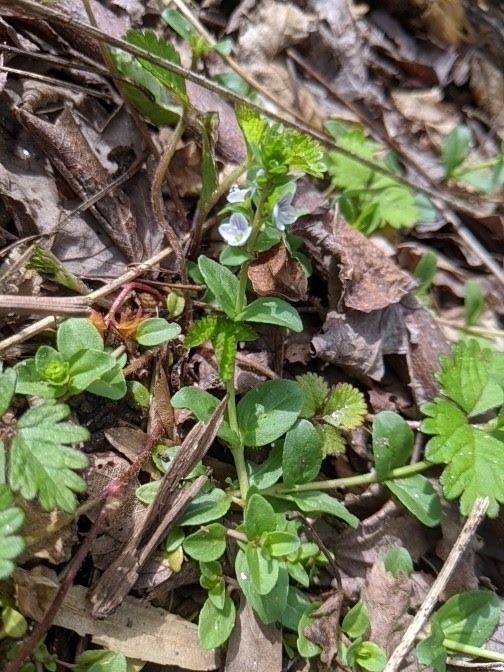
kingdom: Plantae
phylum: Tracheophyta
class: Magnoliopsida
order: Lamiales
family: Plantaginaceae
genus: Veronica
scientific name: Veronica serpyllifolia
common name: Thyme-leaved speedwell
